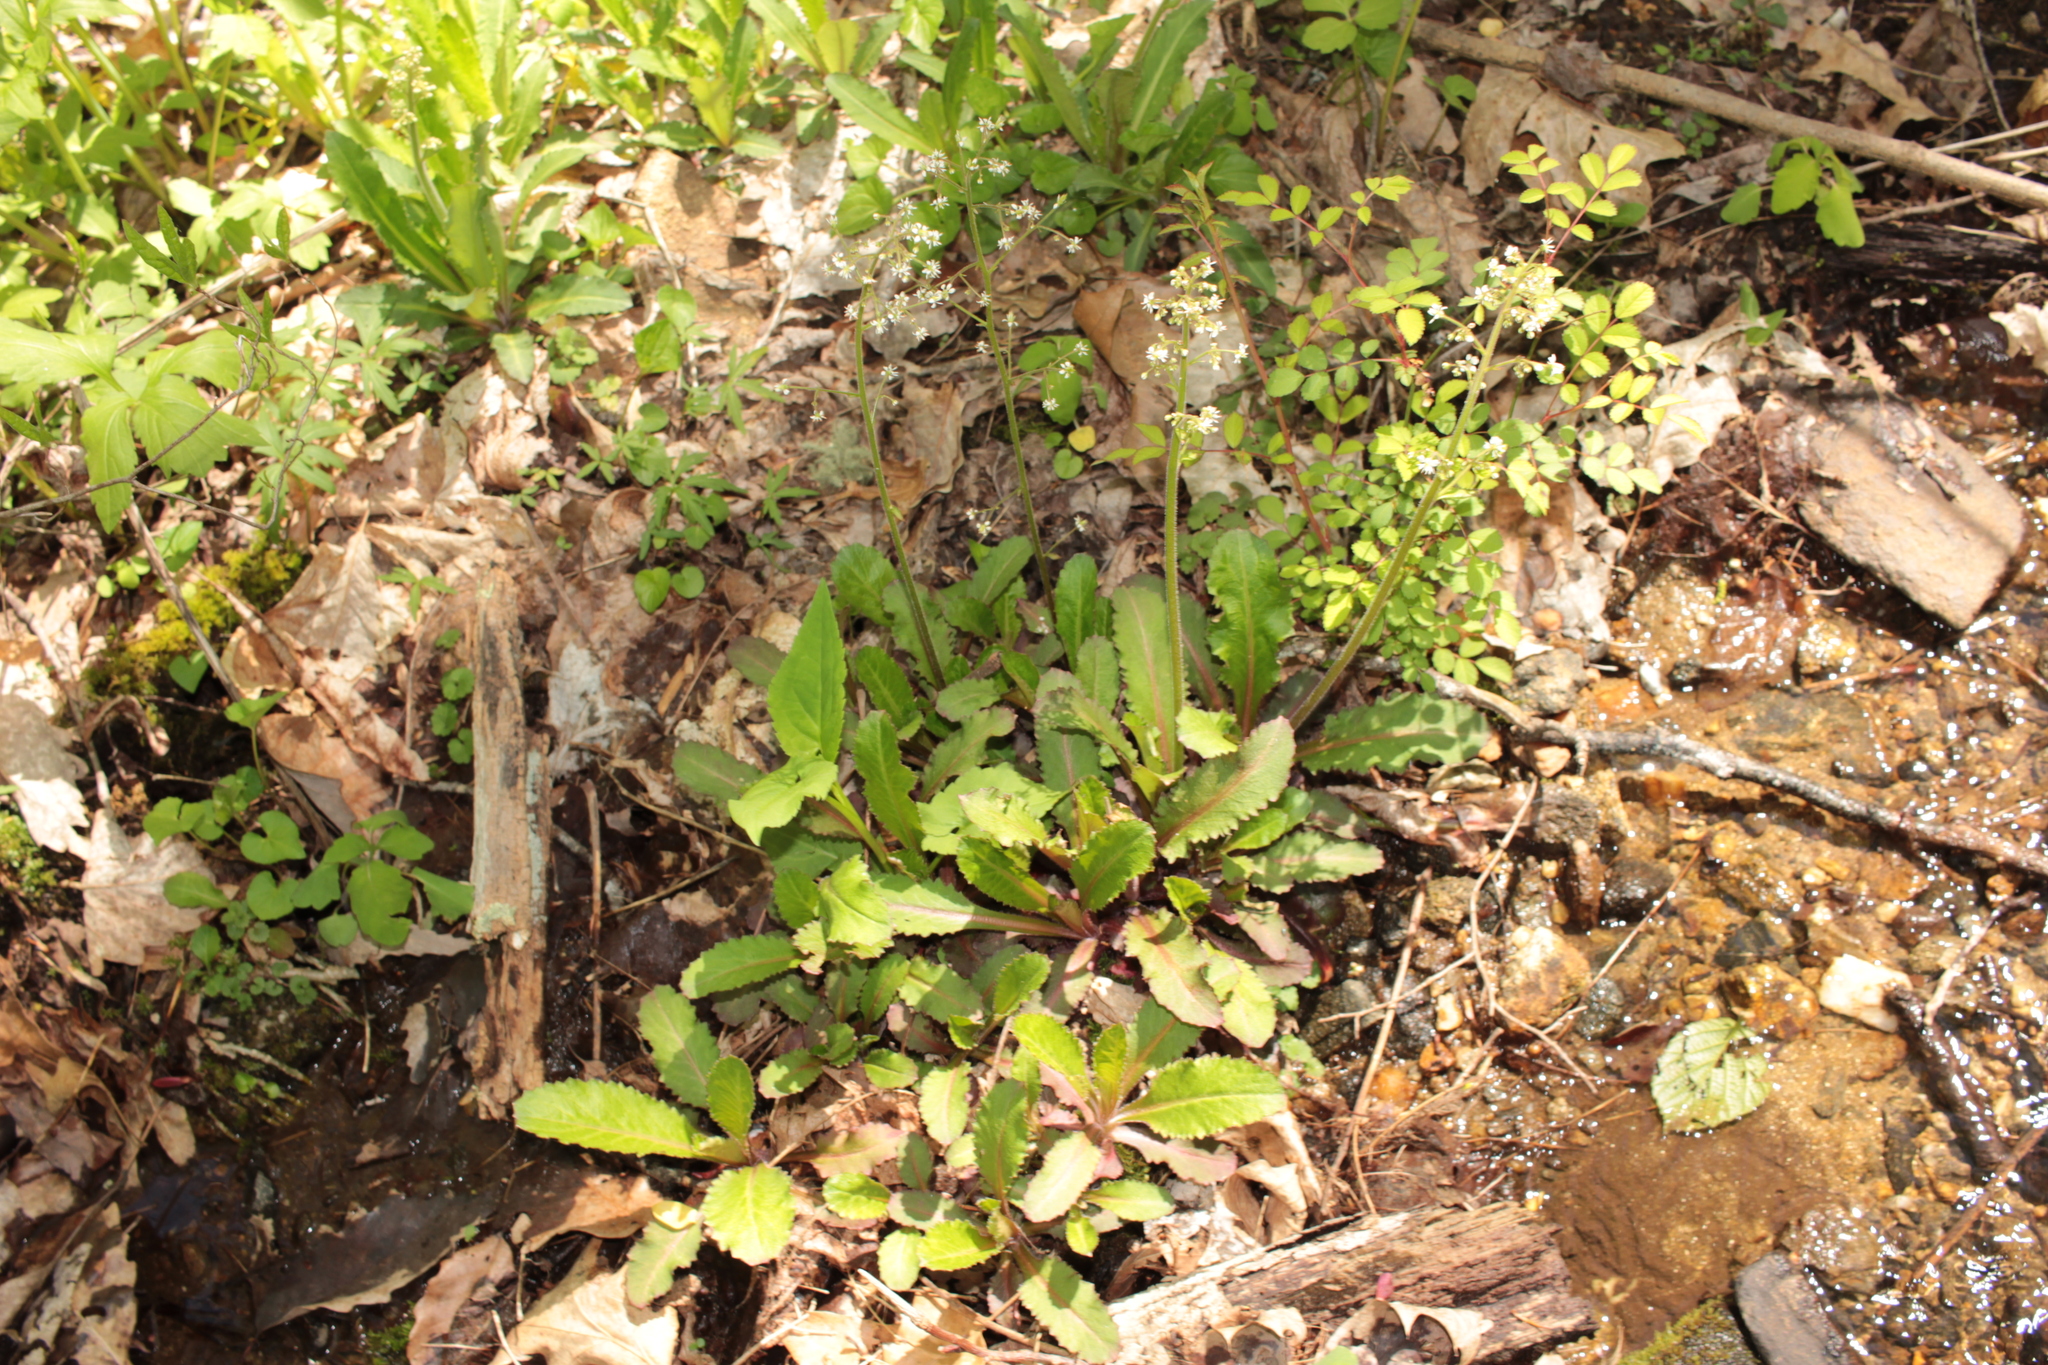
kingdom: Plantae
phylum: Tracheophyta
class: Magnoliopsida
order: Saxifragales
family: Saxifragaceae
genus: Micranthes
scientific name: Micranthes micranthidifolia
